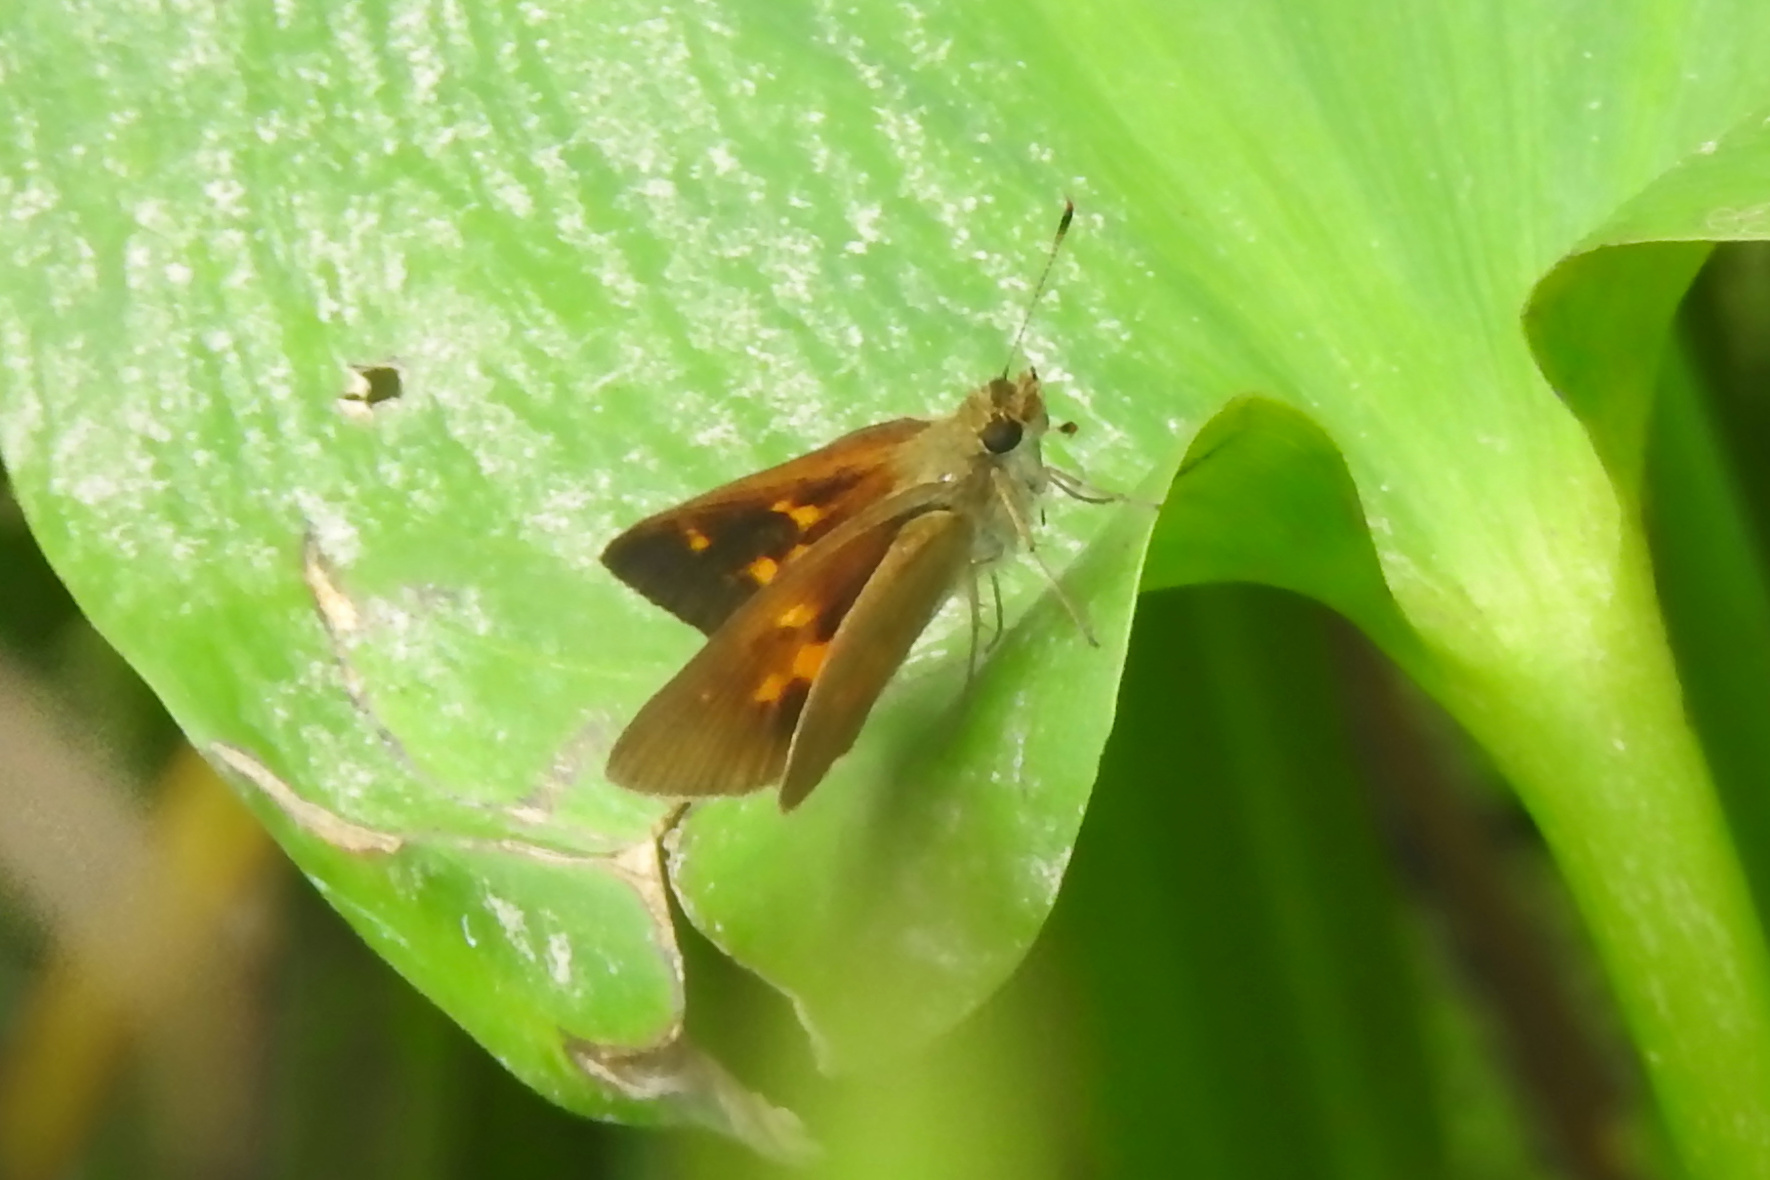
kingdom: Animalia
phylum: Arthropoda
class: Insecta
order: Lepidoptera
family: Hesperiidae
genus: Poanes
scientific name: Poanes viator
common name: Broad-winged skipper
